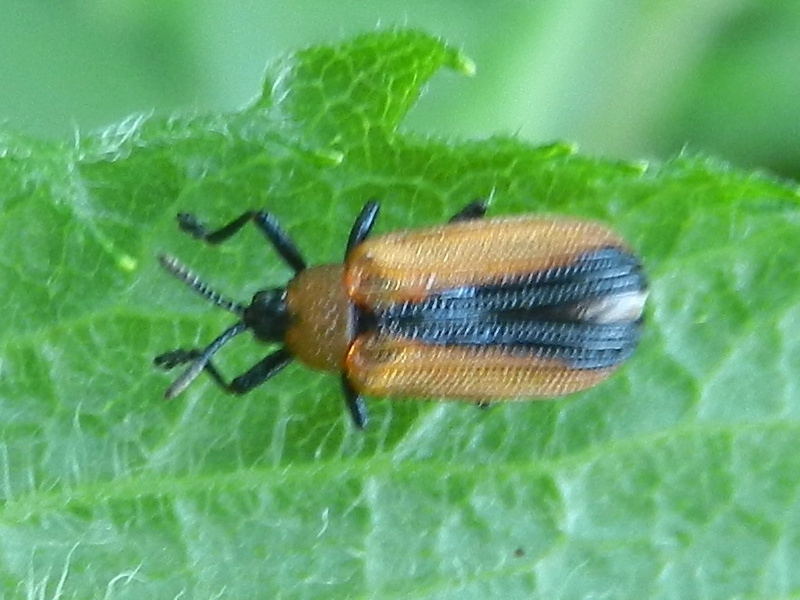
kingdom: Animalia
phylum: Arthropoda
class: Insecta
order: Coleoptera
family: Chrysomelidae
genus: Odontota
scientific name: Odontota dorsalis
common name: Locust leaf-miner beetle
